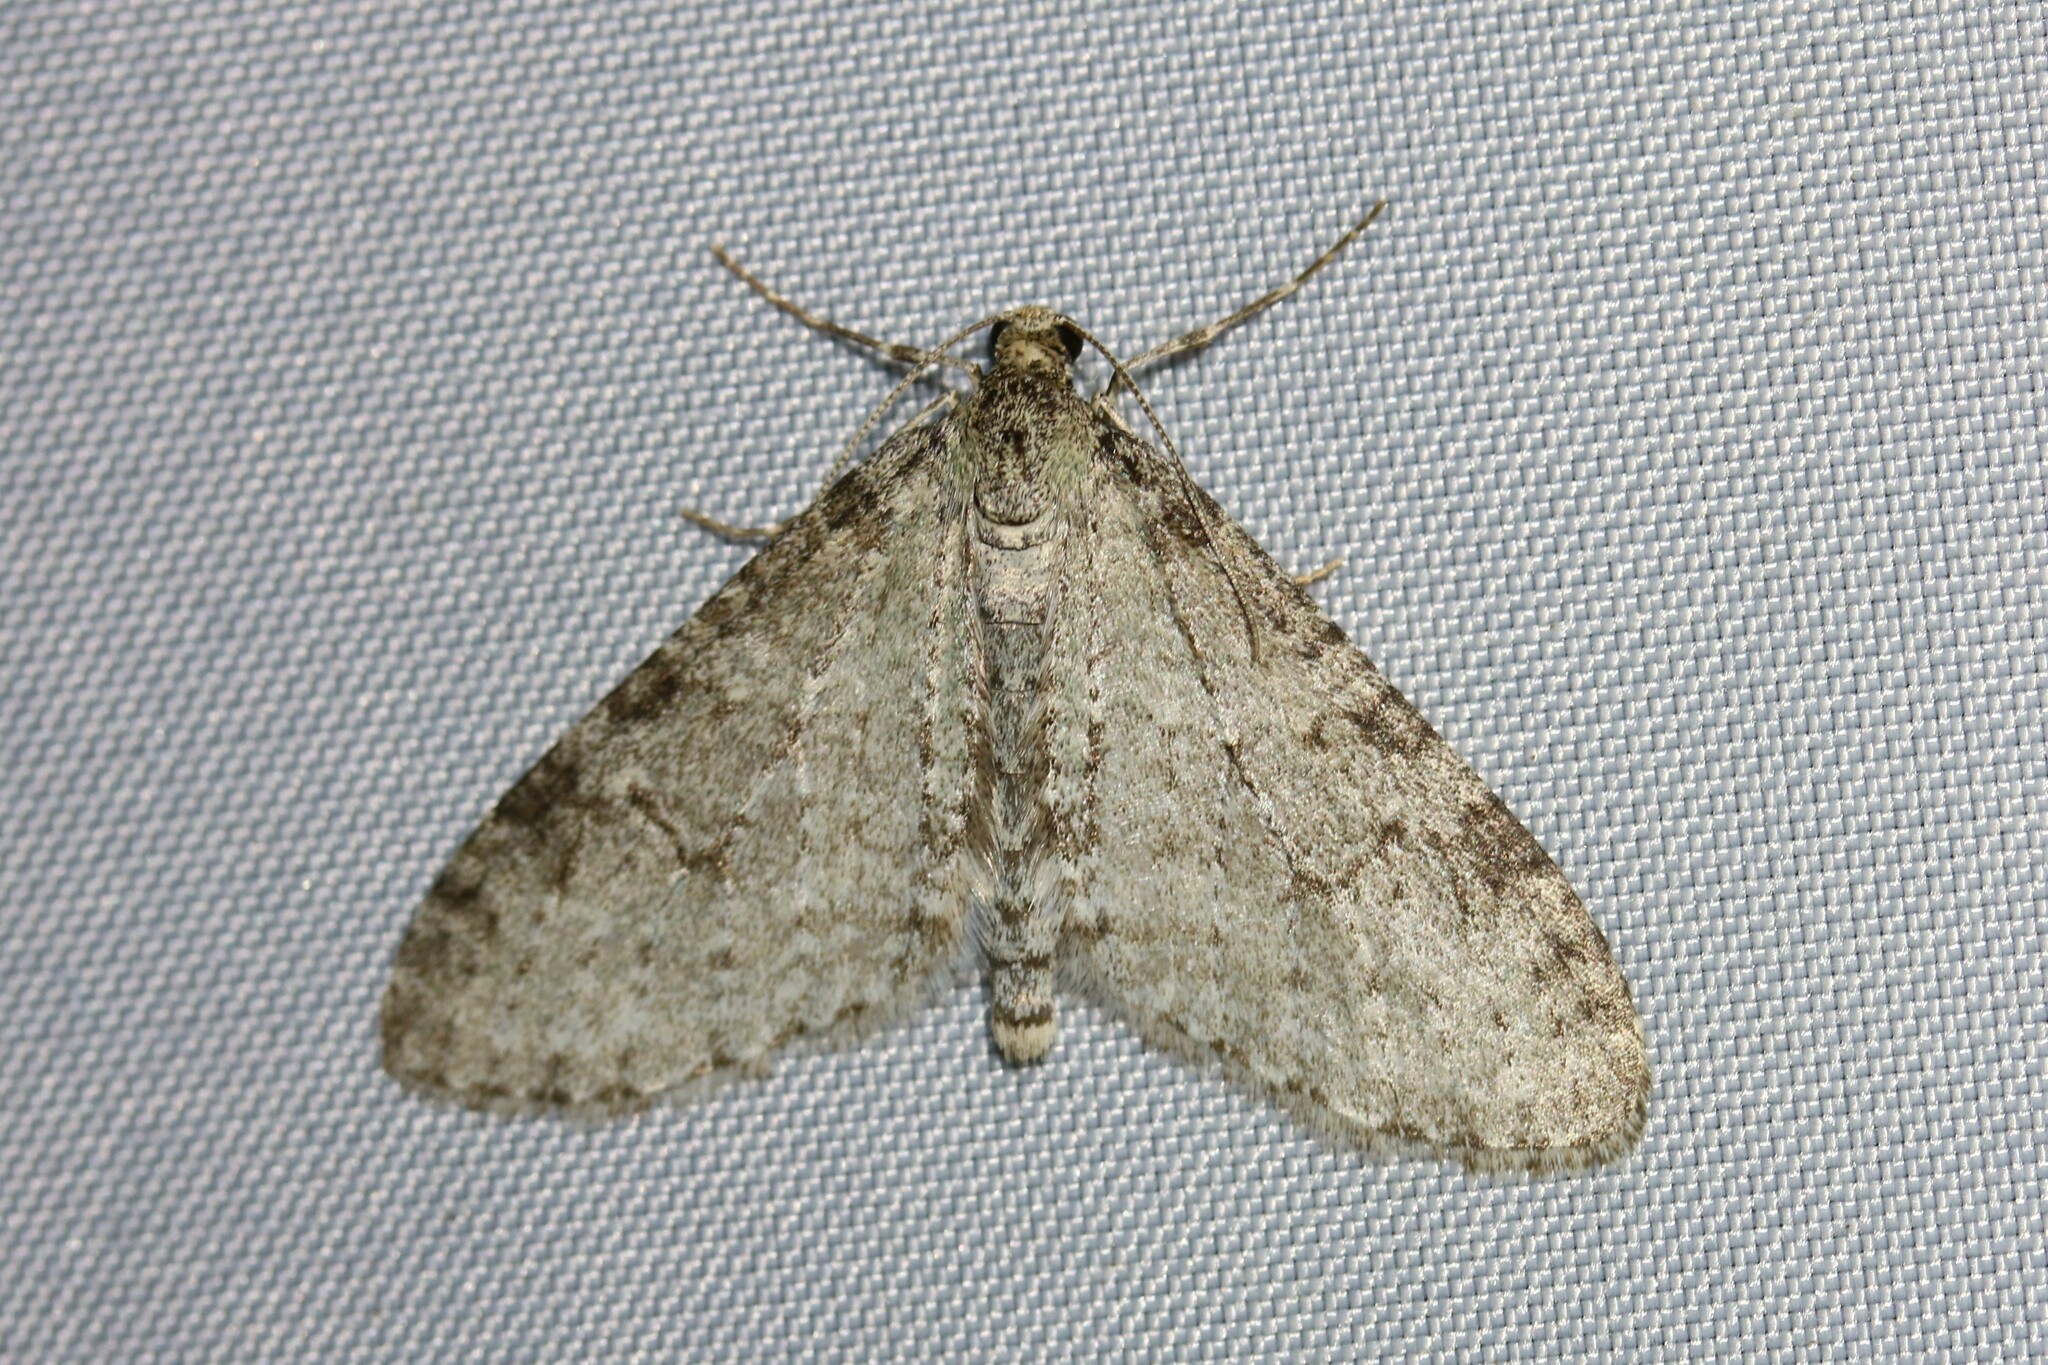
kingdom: Animalia
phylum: Arthropoda
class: Insecta
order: Lepidoptera
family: Geometridae
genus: Trichopteryx
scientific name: Trichopteryx carpinata
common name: Early tooth-striped
